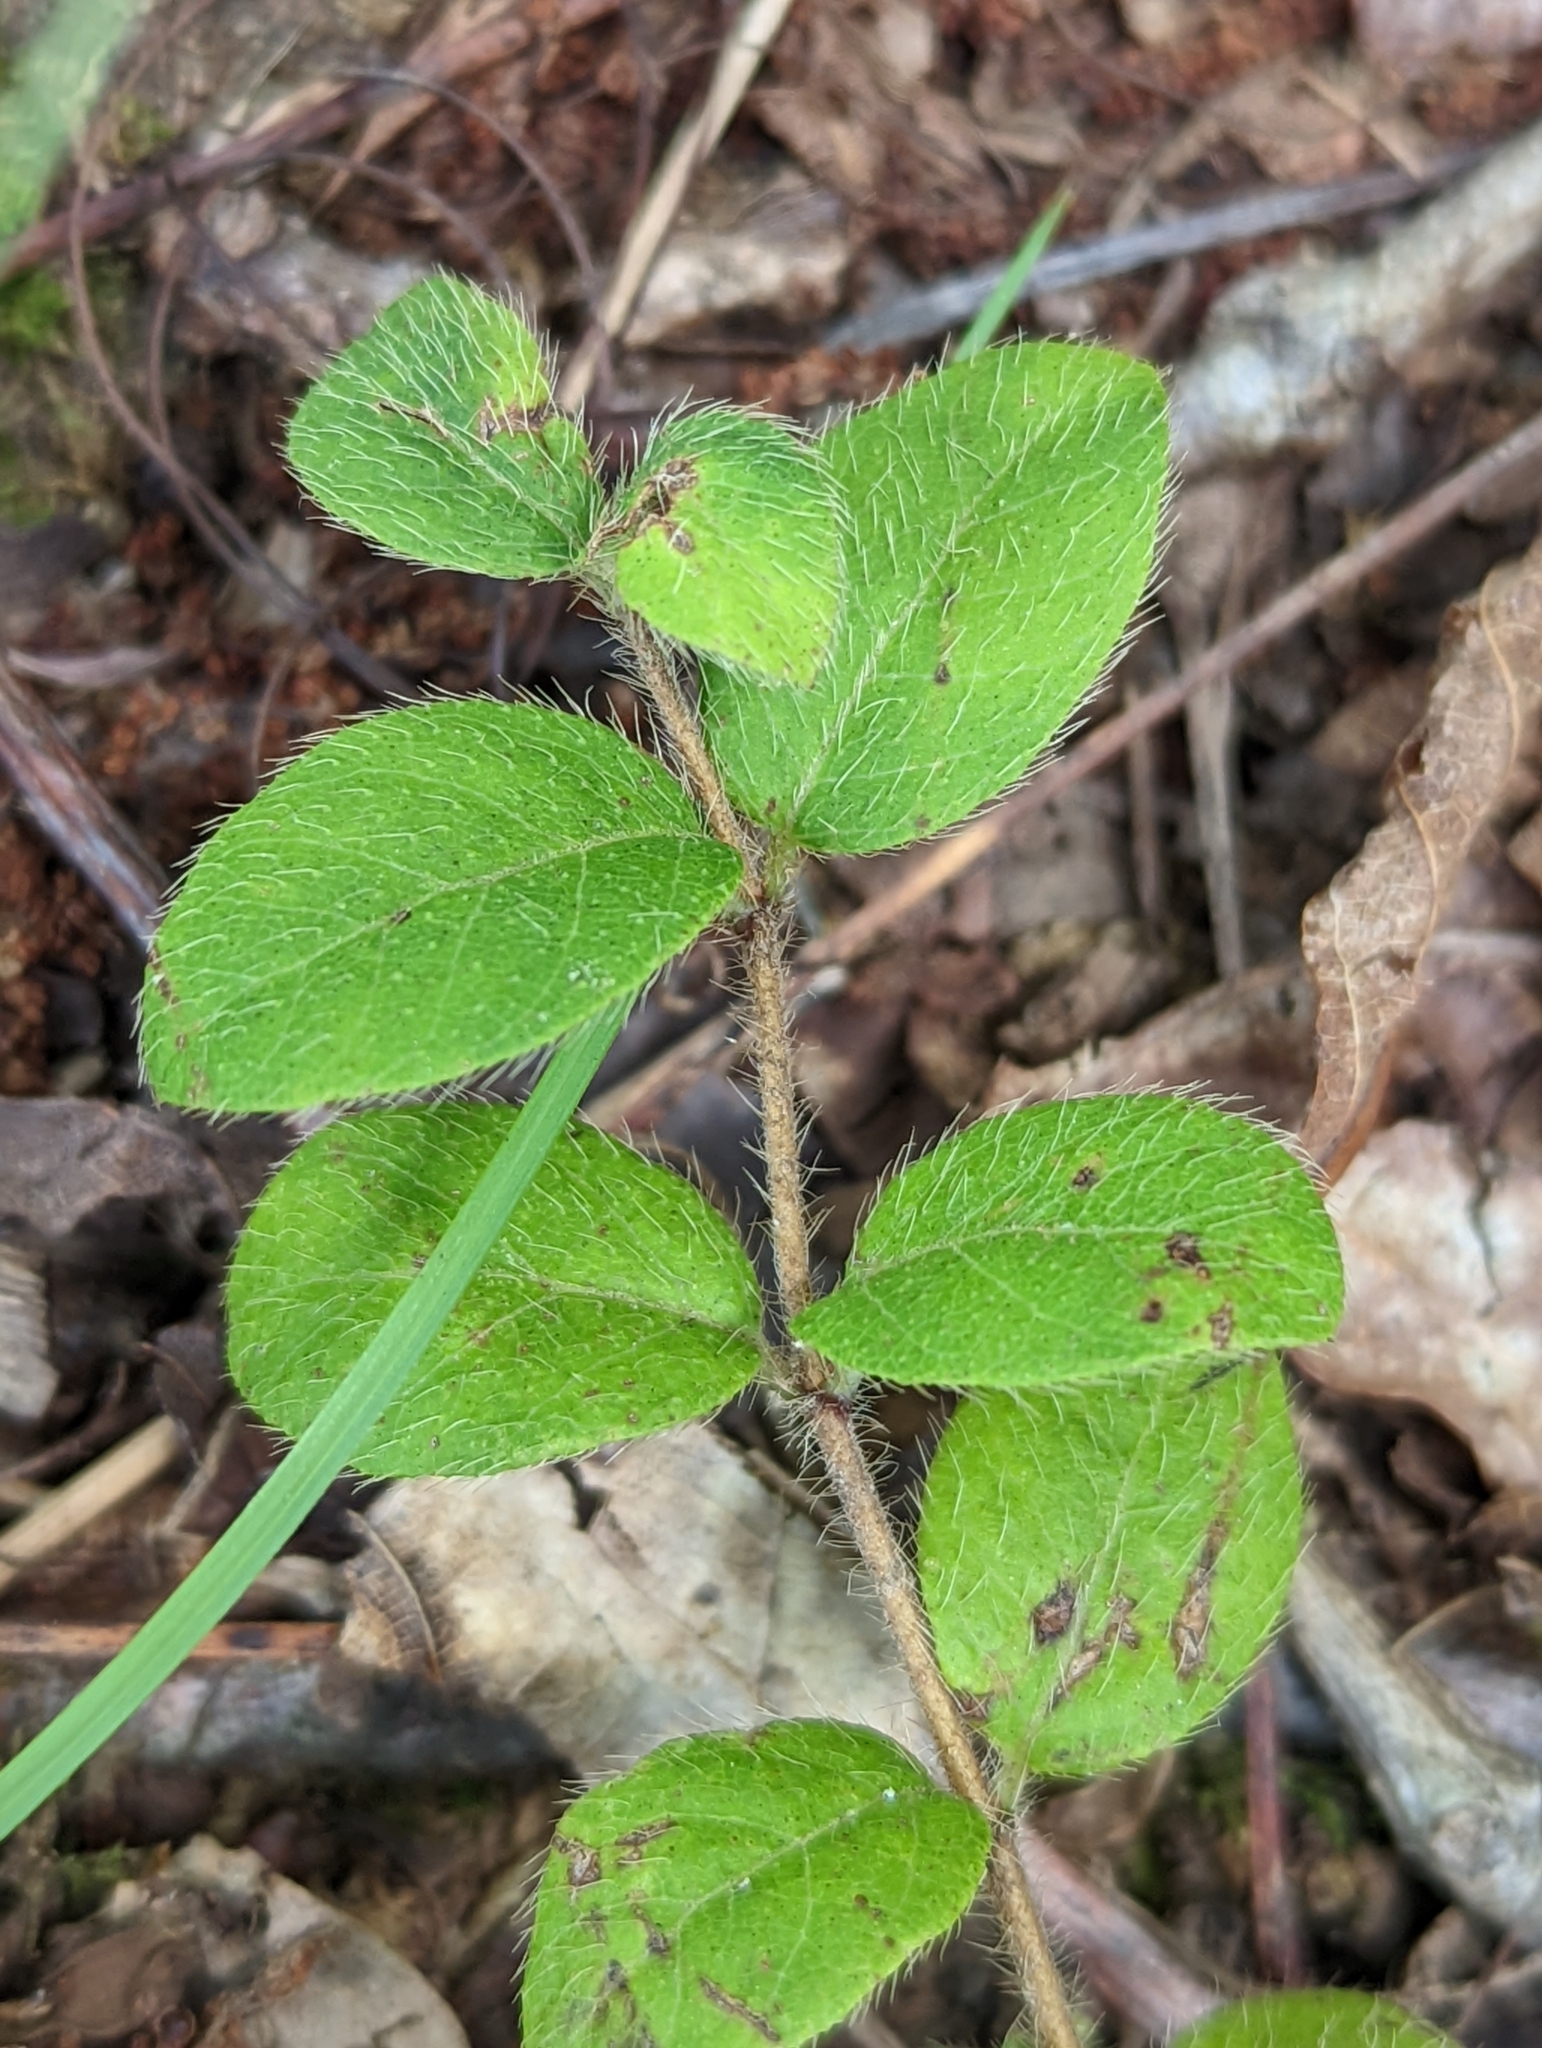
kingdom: Plantae
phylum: Tracheophyta
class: Magnoliopsida
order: Dipsacales
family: Caprifoliaceae
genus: Lonicera
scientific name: Lonicera fragrantissima
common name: Fragrant honeysuckle
